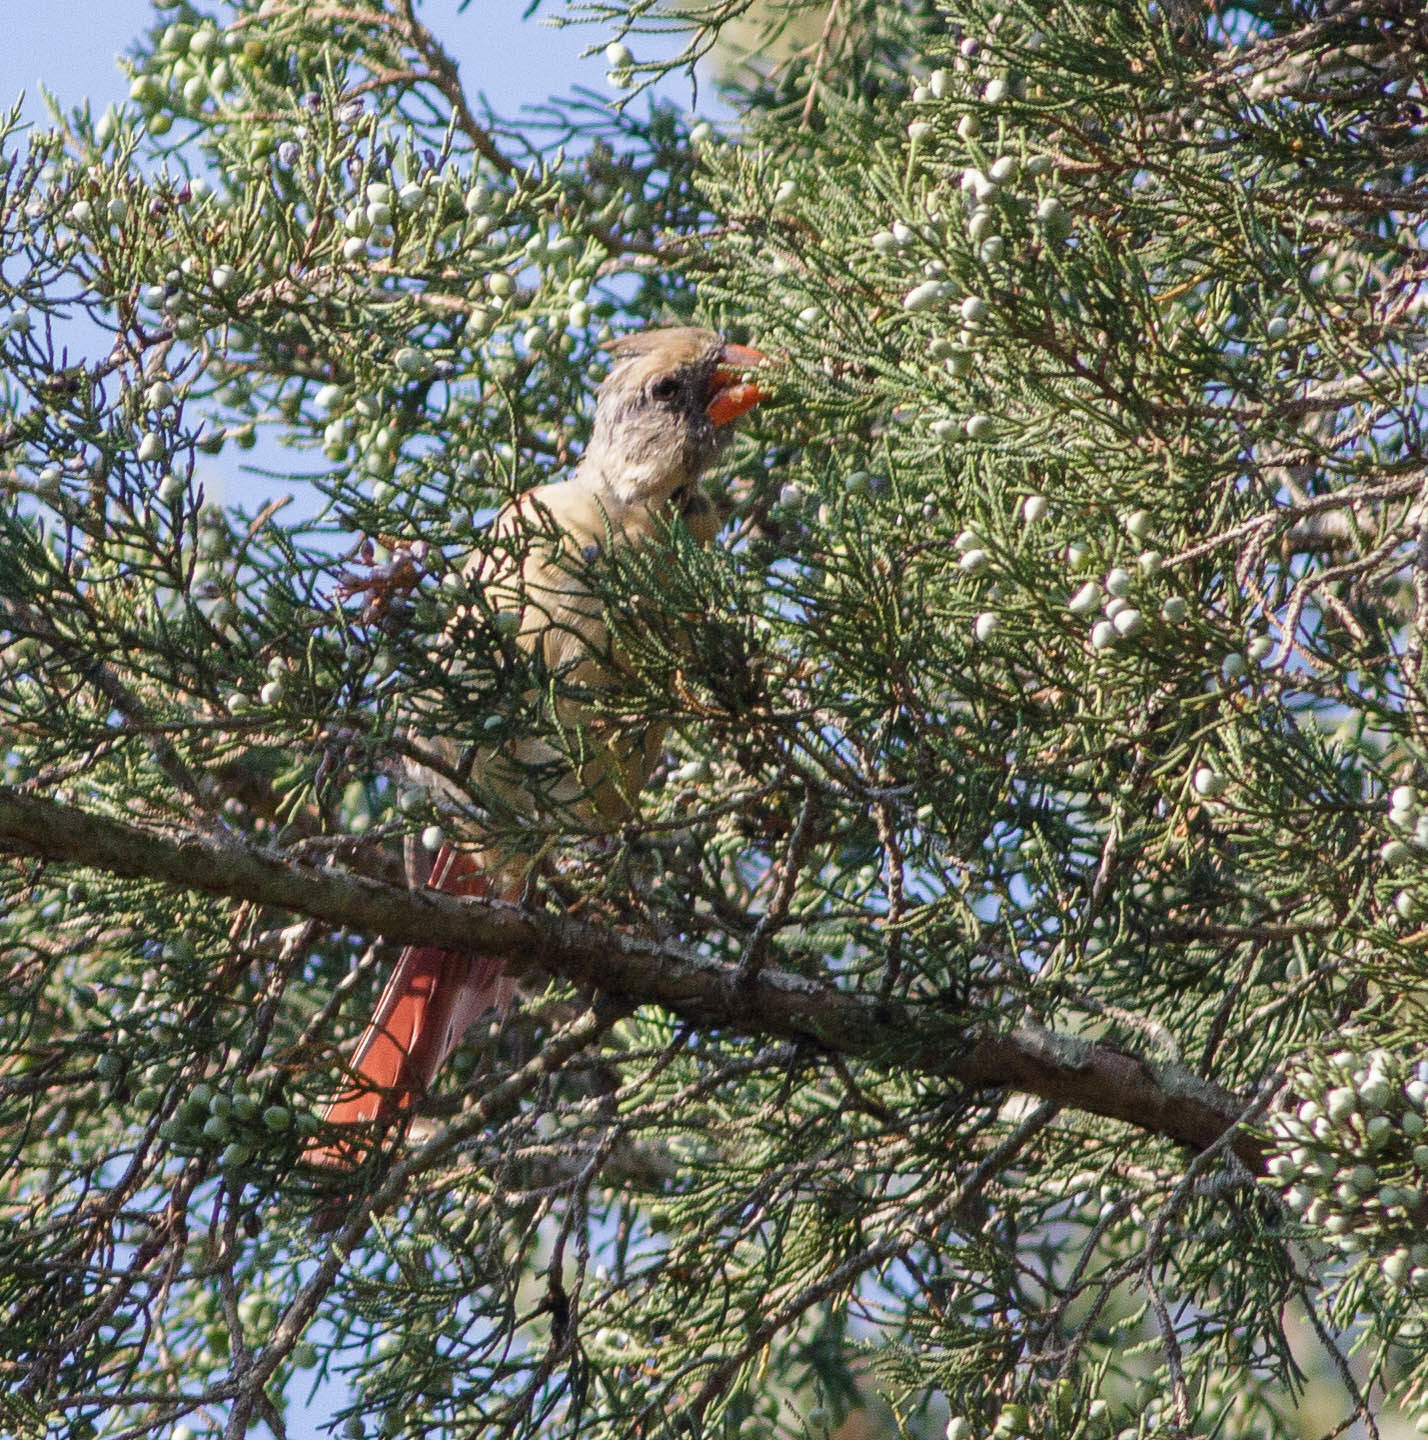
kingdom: Animalia
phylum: Chordata
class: Aves
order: Passeriformes
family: Cardinalidae
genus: Cardinalis
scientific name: Cardinalis cardinalis
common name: Northern cardinal
